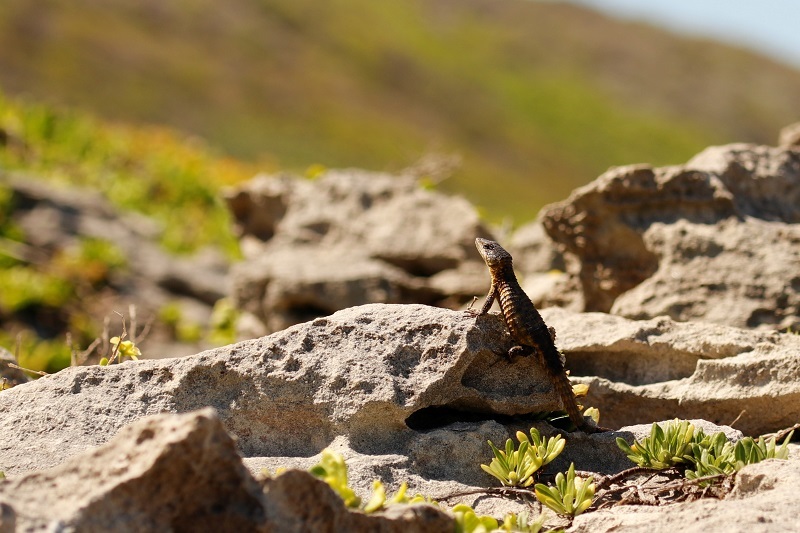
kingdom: Animalia
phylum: Chordata
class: Squamata
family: Cordylidae
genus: Cordylus
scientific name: Cordylus cordylus
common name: Cape girdled lizard
